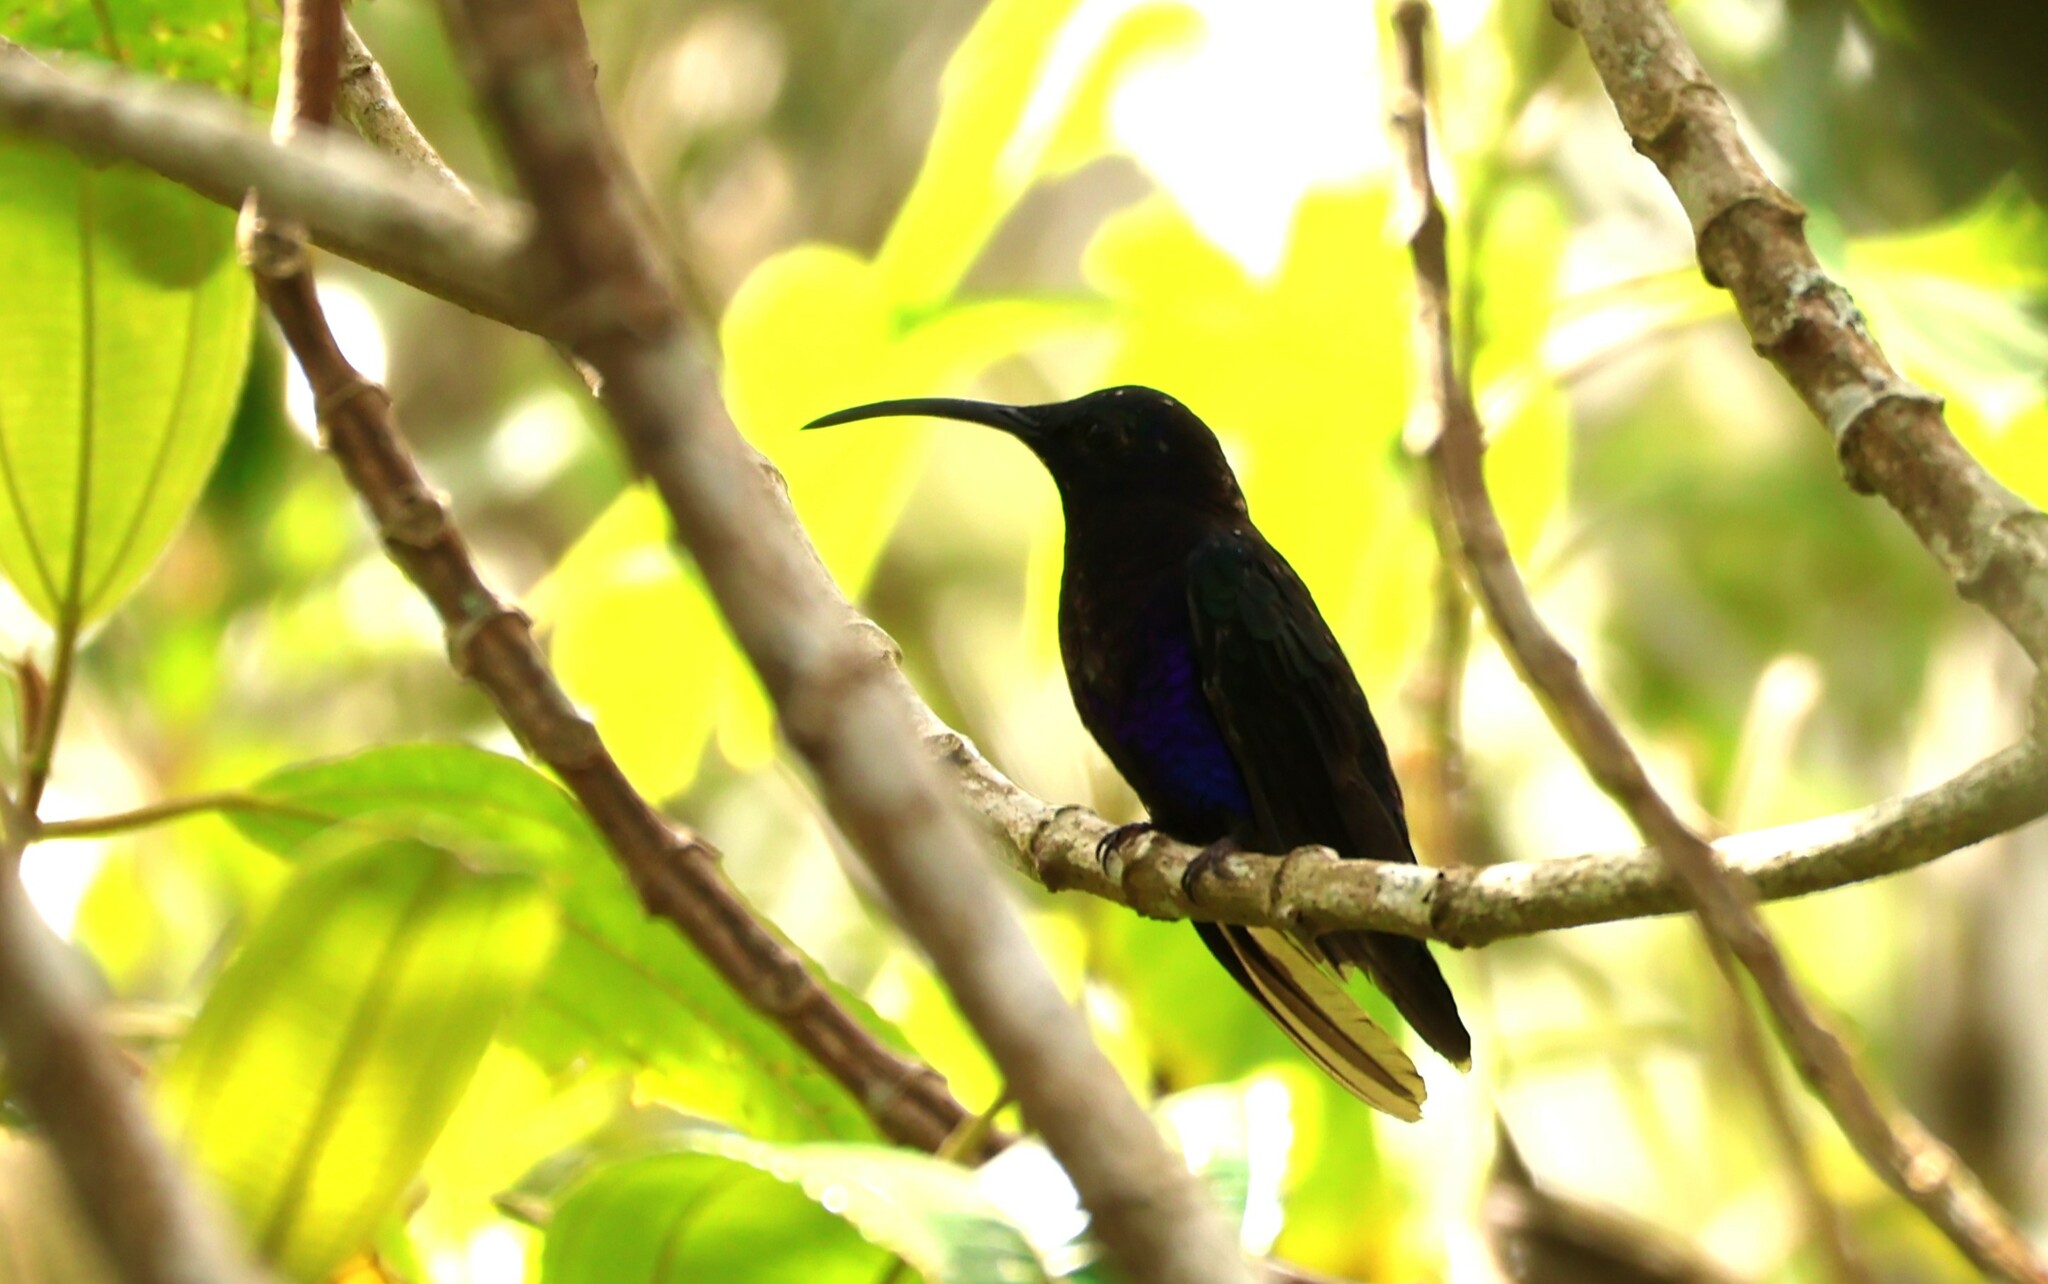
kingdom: Animalia
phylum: Chordata
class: Aves
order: Apodiformes
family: Trochilidae
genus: Campylopterus
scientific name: Campylopterus hemileucurus
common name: Violet sabrewing
